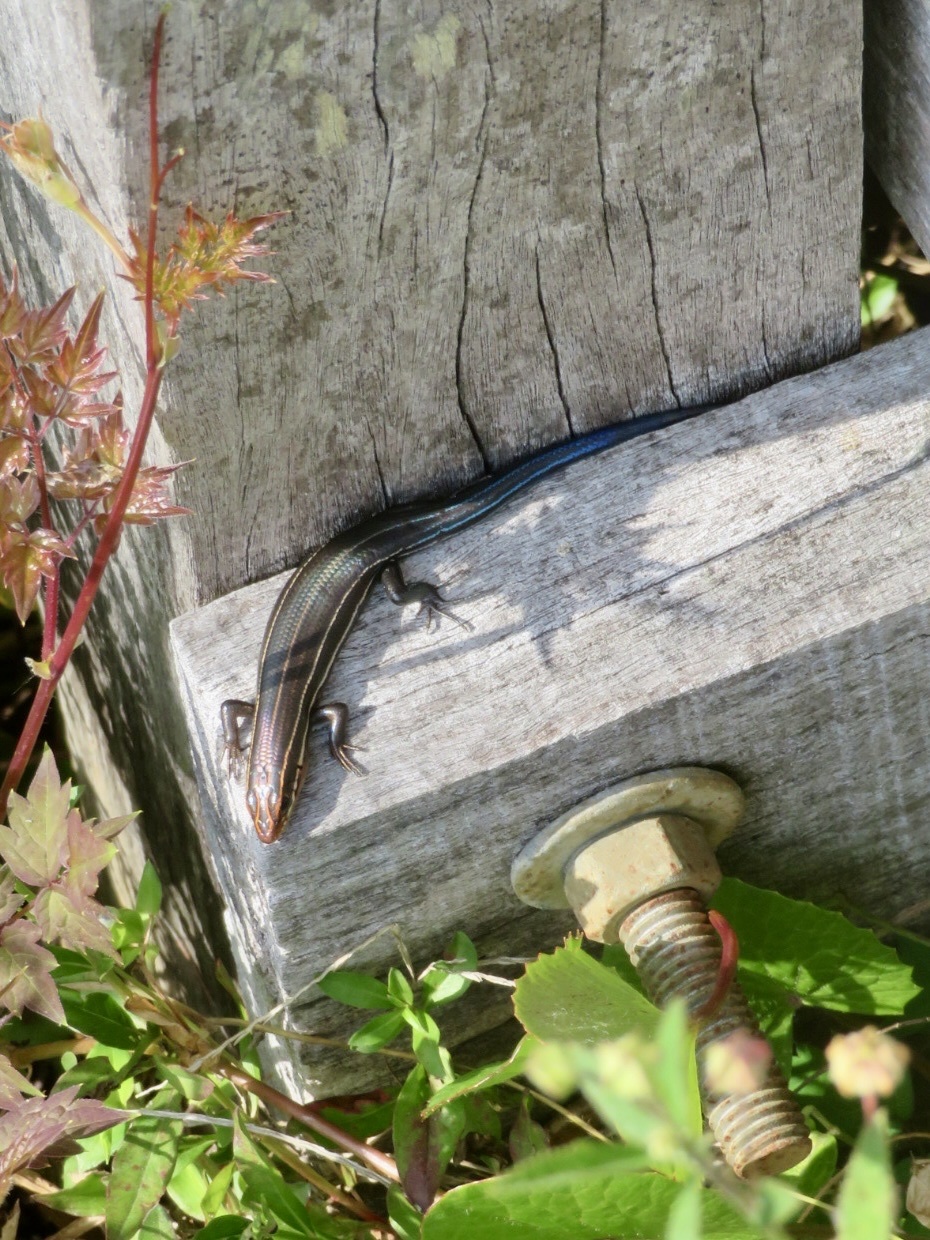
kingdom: Animalia
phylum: Chordata
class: Squamata
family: Scincidae
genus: Plestiodon
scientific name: Plestiodon inexpectatus
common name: Southeastern five-lined skink
